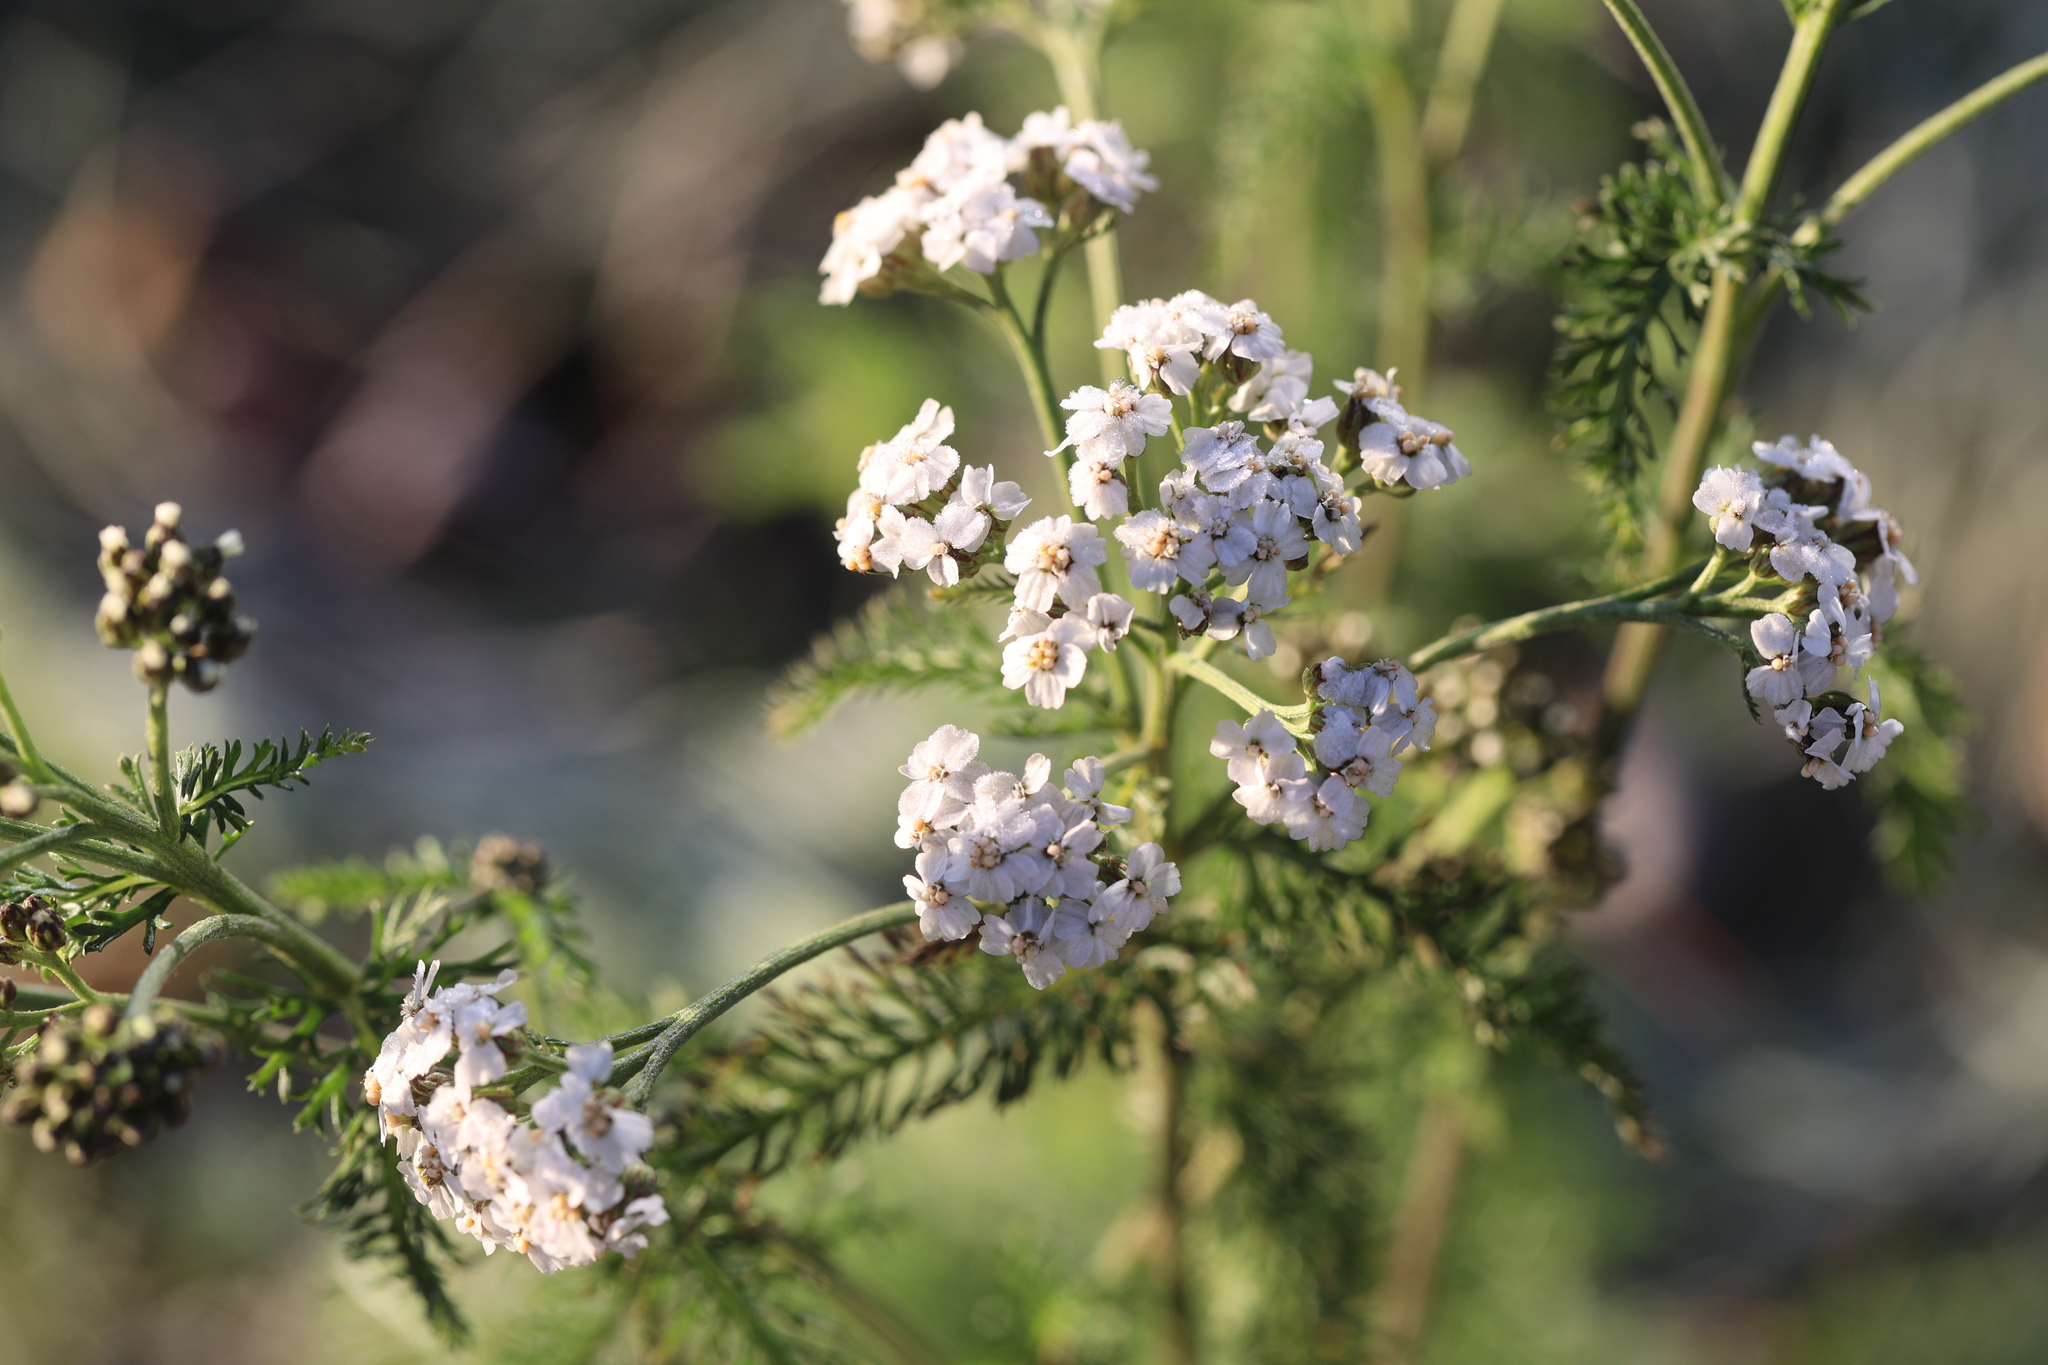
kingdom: Plantae
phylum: Tracheophyta
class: Magnoliopsida
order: Asterales
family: Asteraceae
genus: Achillea
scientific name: Achillea millefolium
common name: Yarrow
